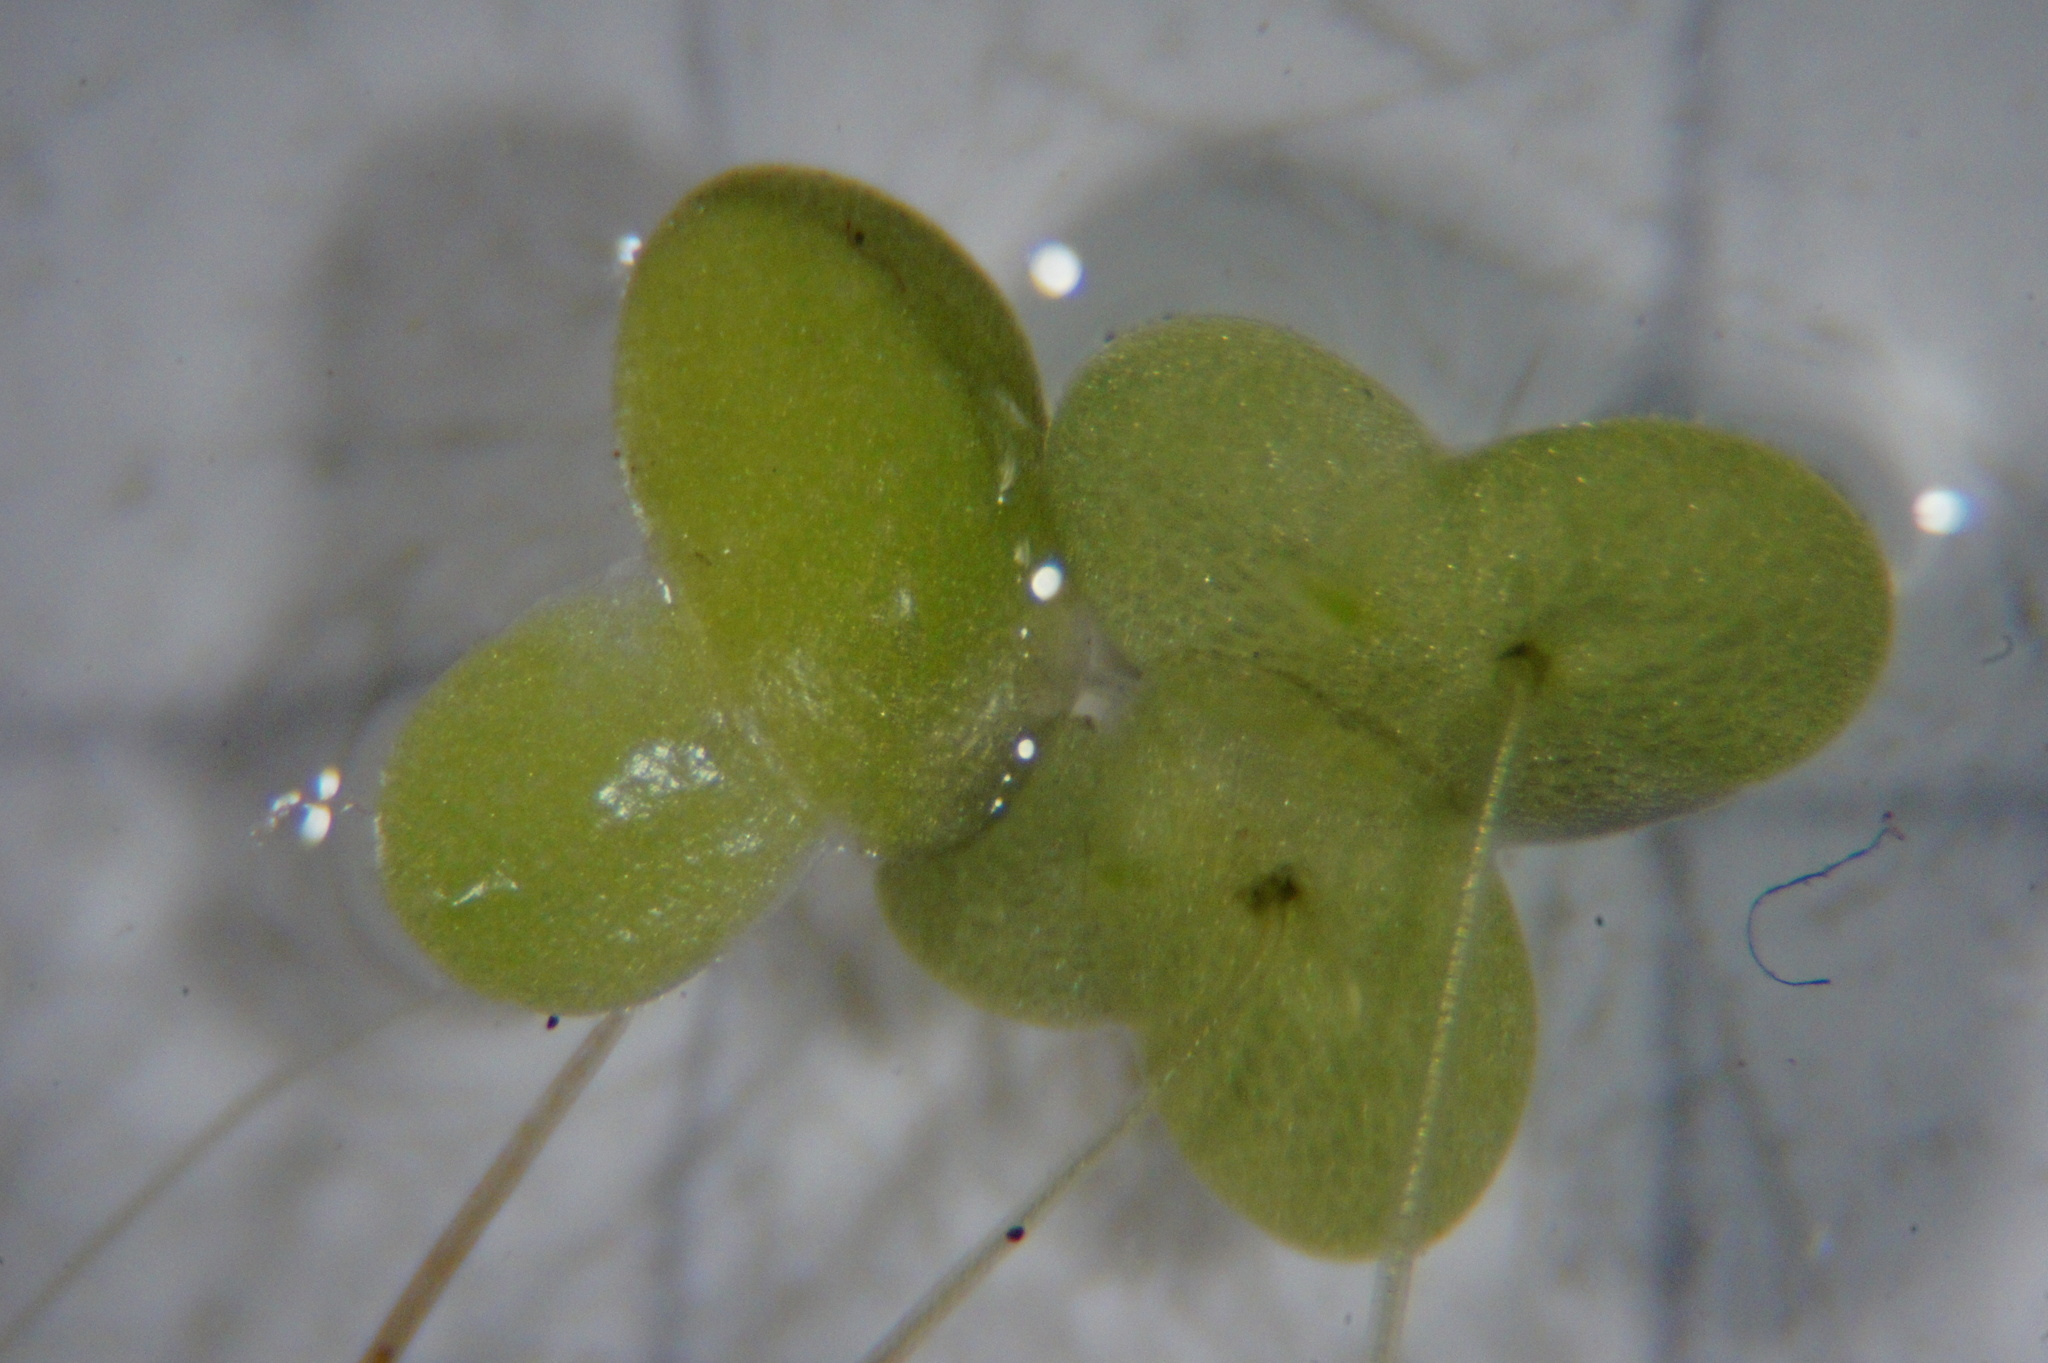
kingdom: Plantae
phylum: Tracheophyta
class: Liliopsida
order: Alismatales
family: Araceae
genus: Lemna
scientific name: Lemna minor
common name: Common duckweed
